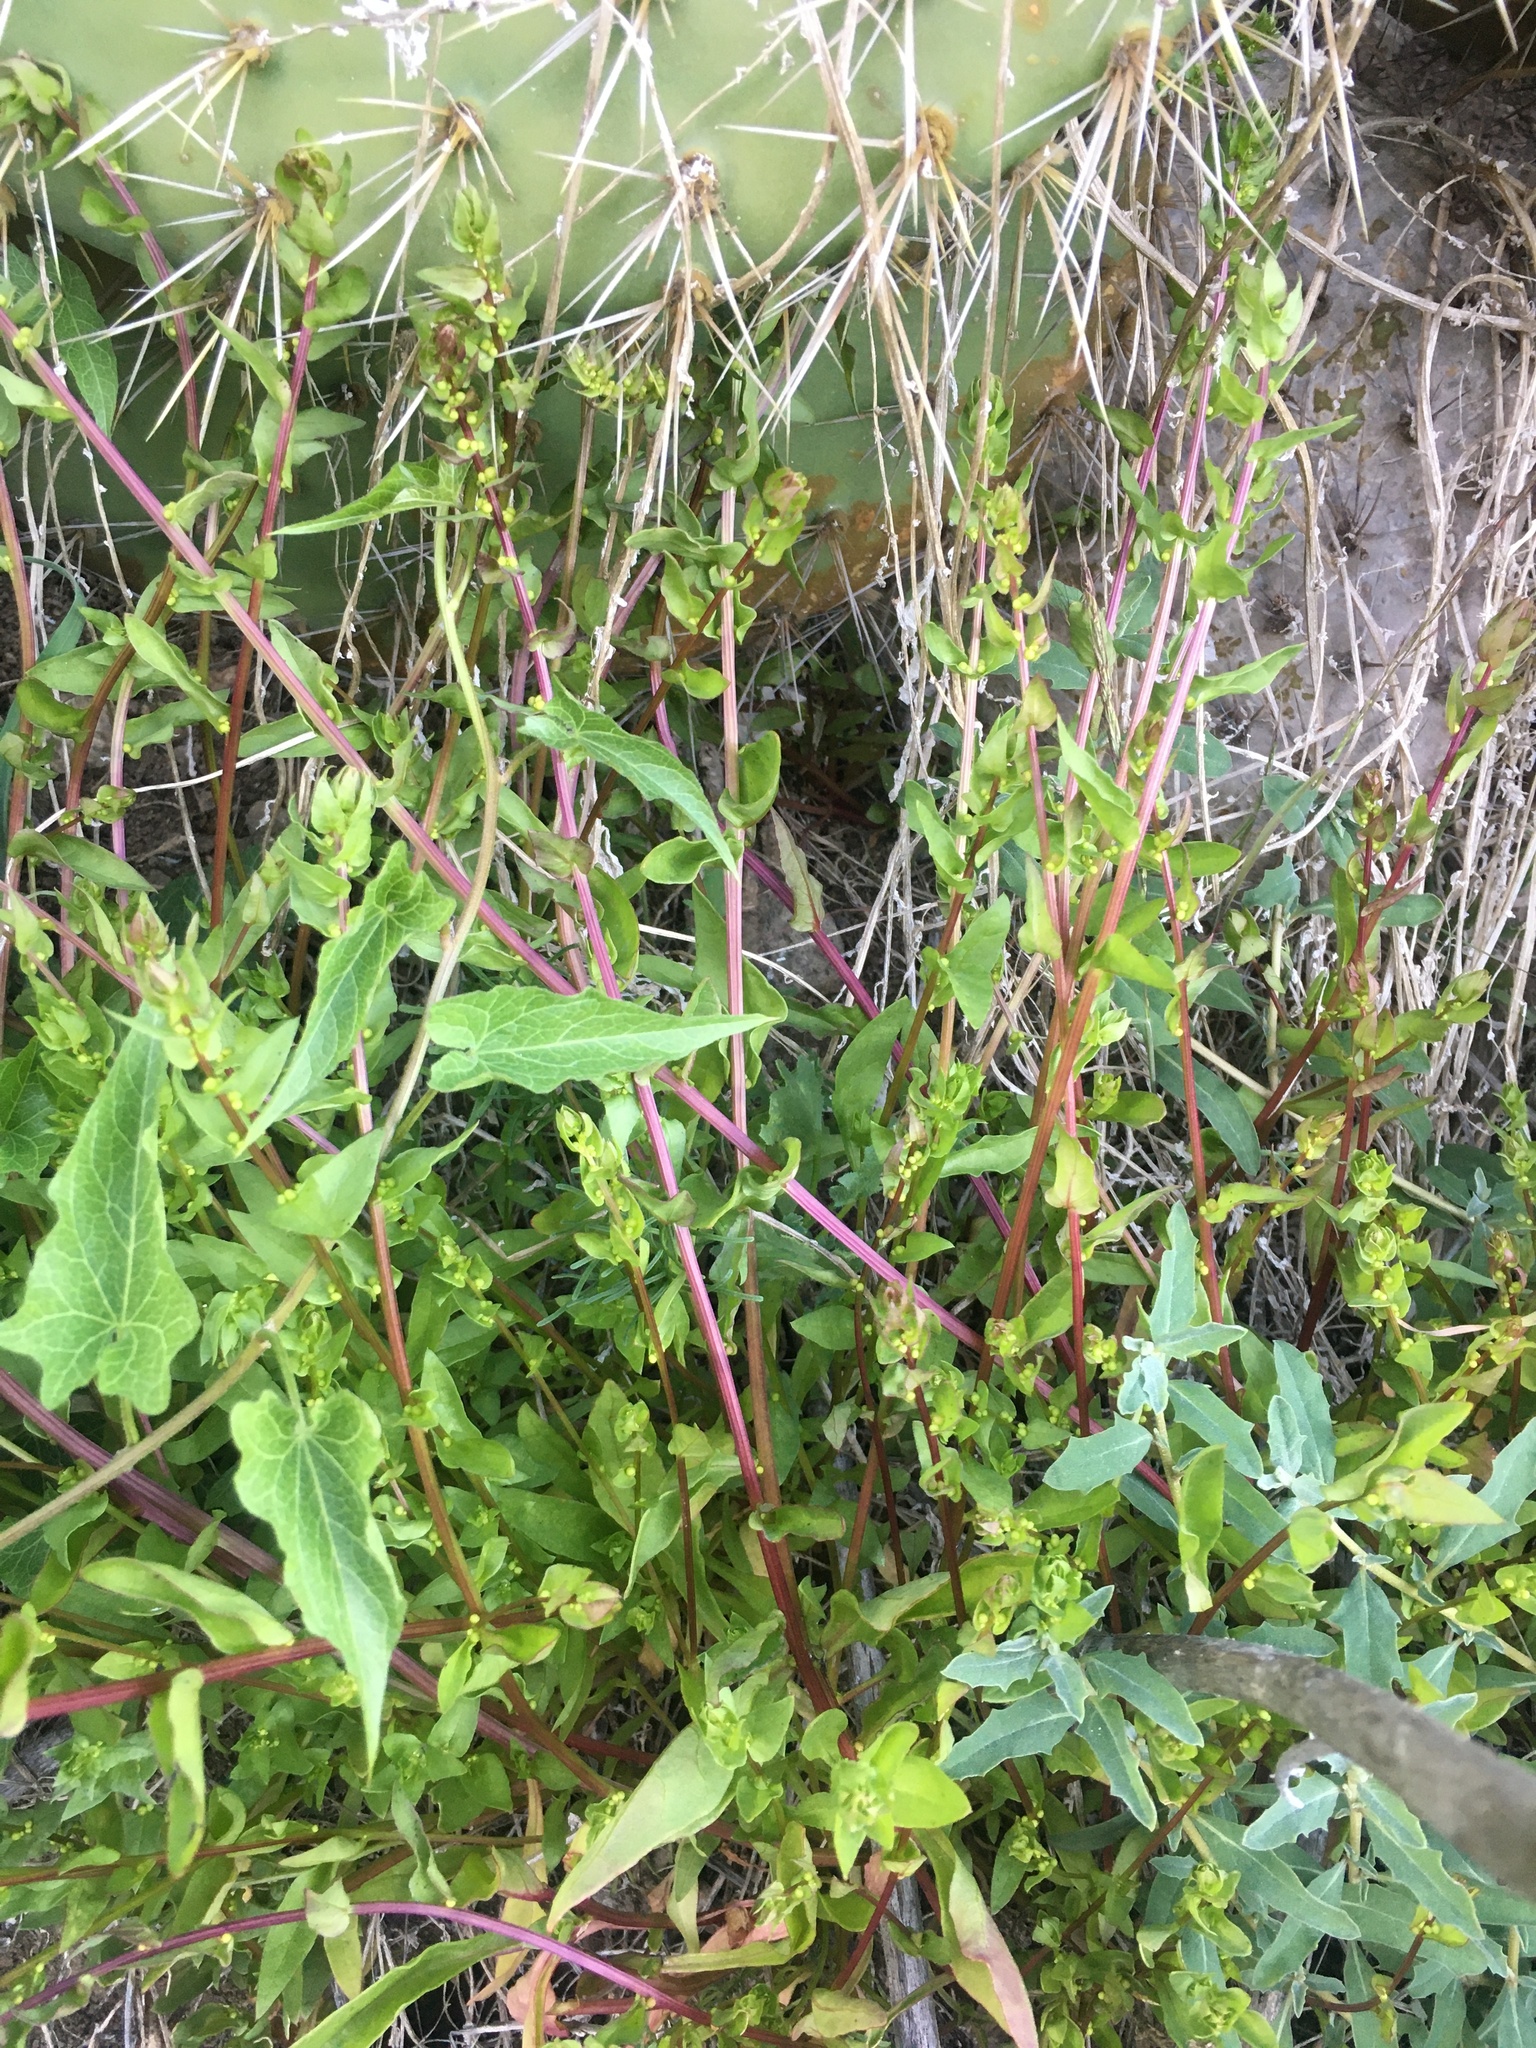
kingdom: Plantae
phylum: Tracheophyta
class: Magnoliopsida
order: Caryophyllales
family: Amaranthaceae
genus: Aphanisma
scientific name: Aphanisma blitoides
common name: Aphanisma
